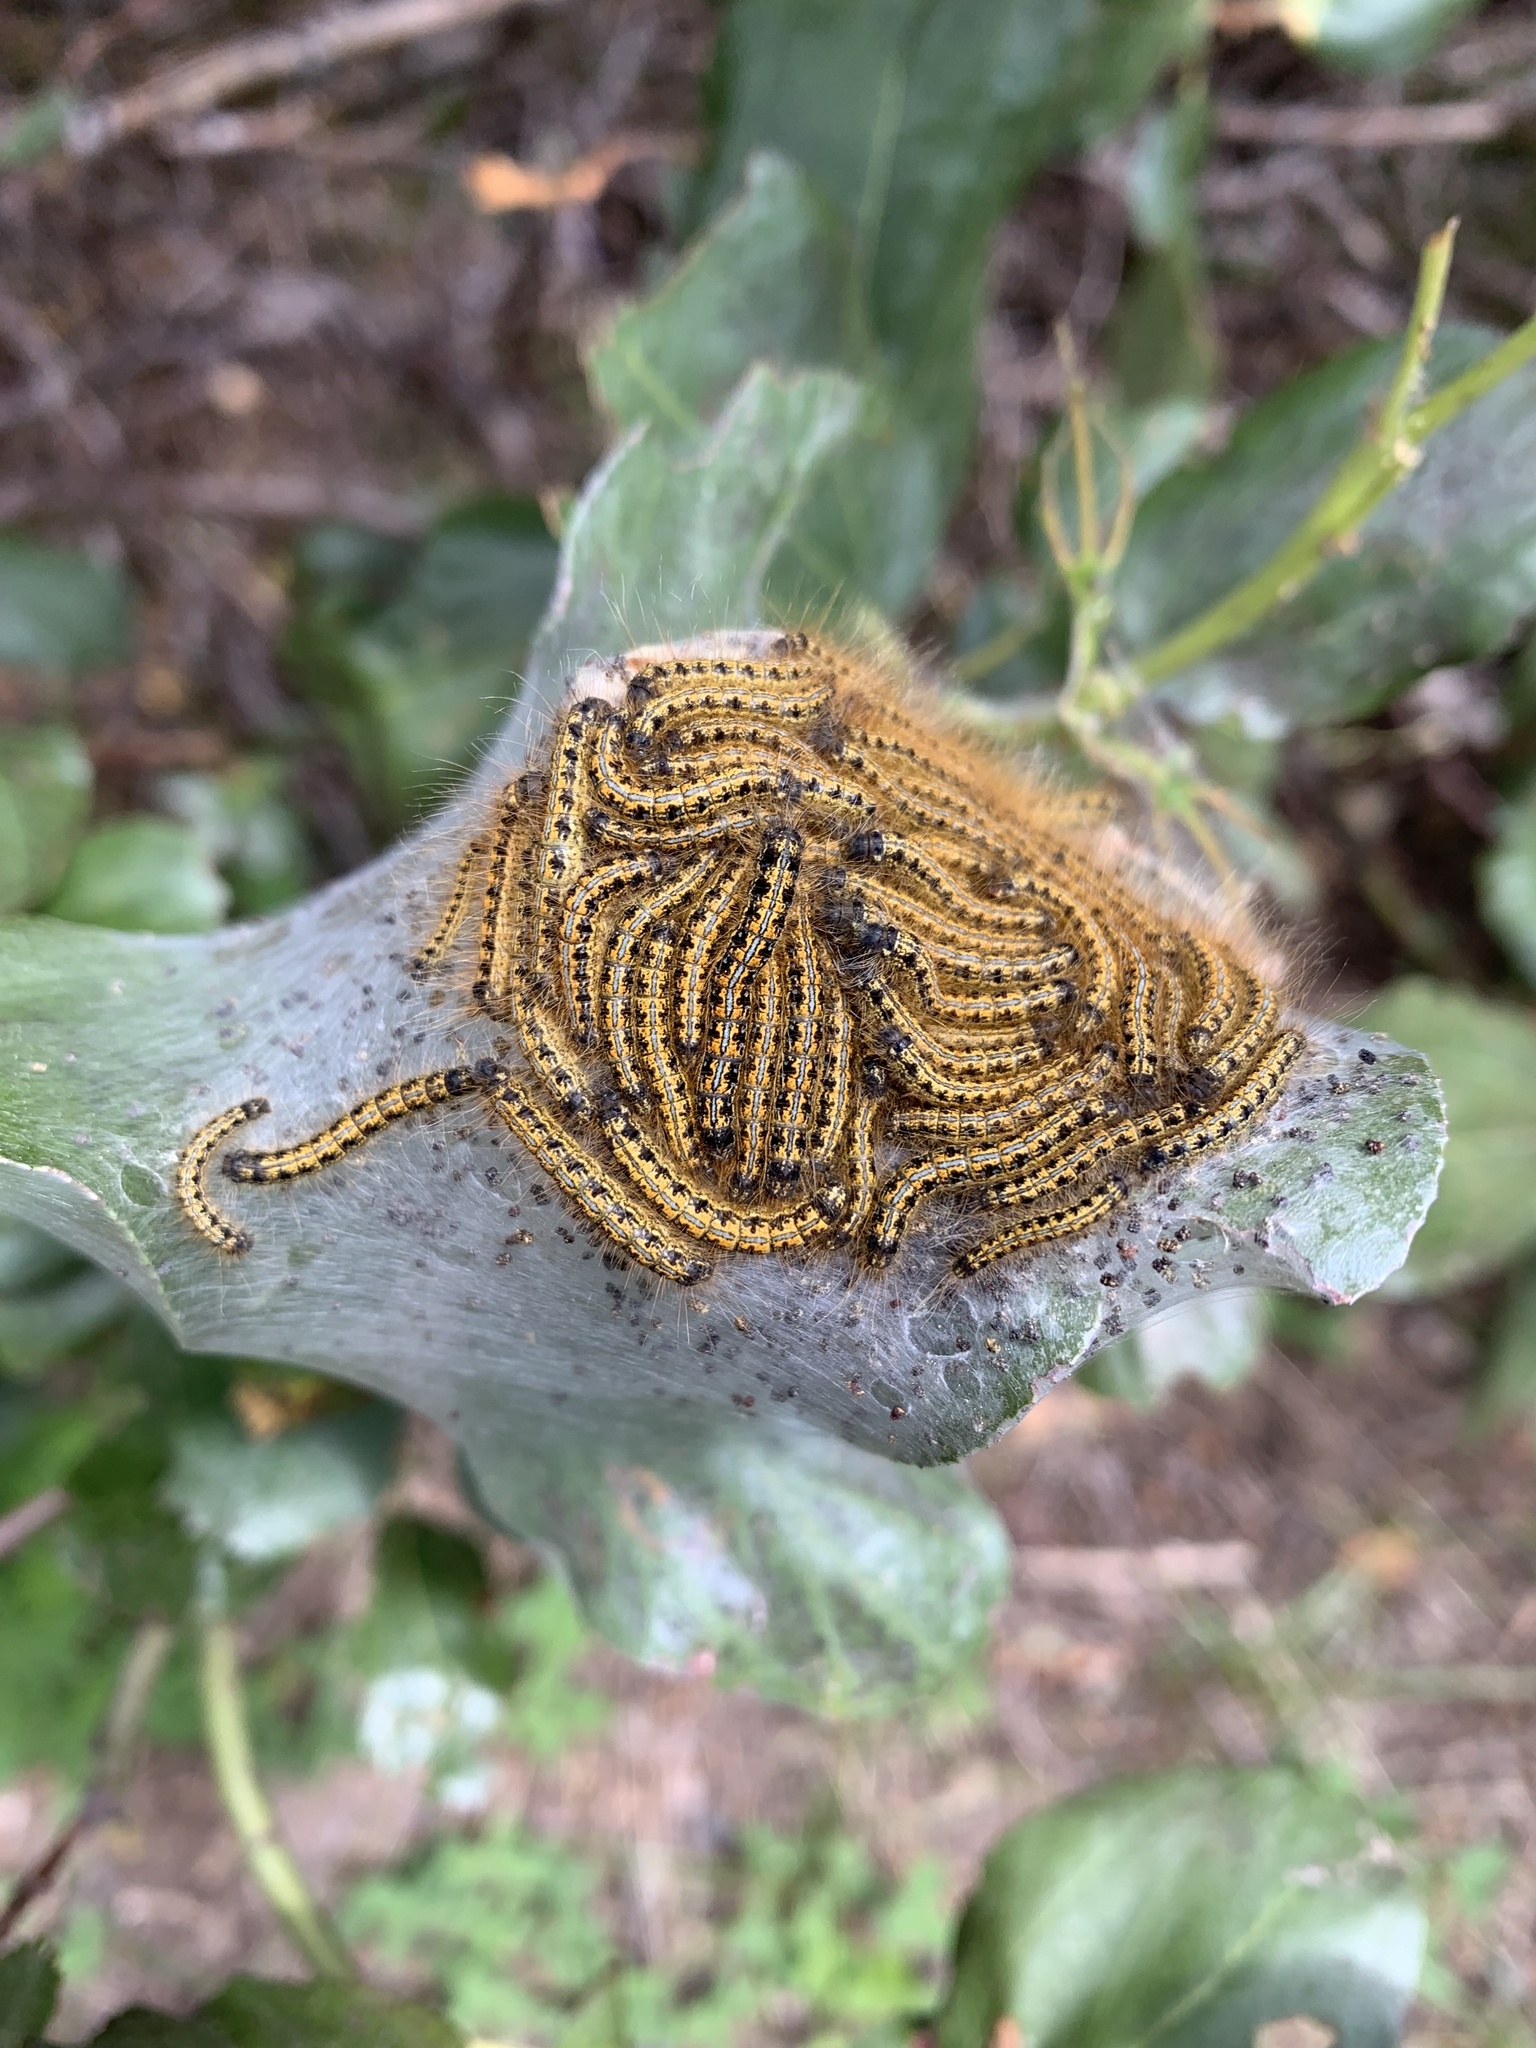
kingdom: Animalia
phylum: Arthropoda
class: Insecta
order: Lepidoptera
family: Lasiocampidae
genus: Malacosoma
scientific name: Malacosoma californica
